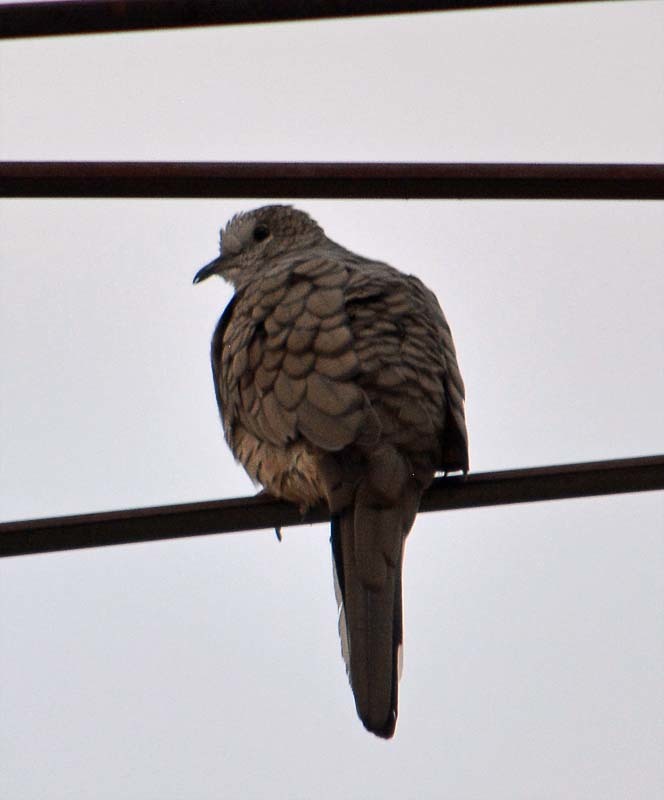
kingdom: Animalia
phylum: Chordata
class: Aves
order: Columbiformes
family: Columbidae
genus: Columbina
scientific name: Columbina inca
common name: Inca dove
